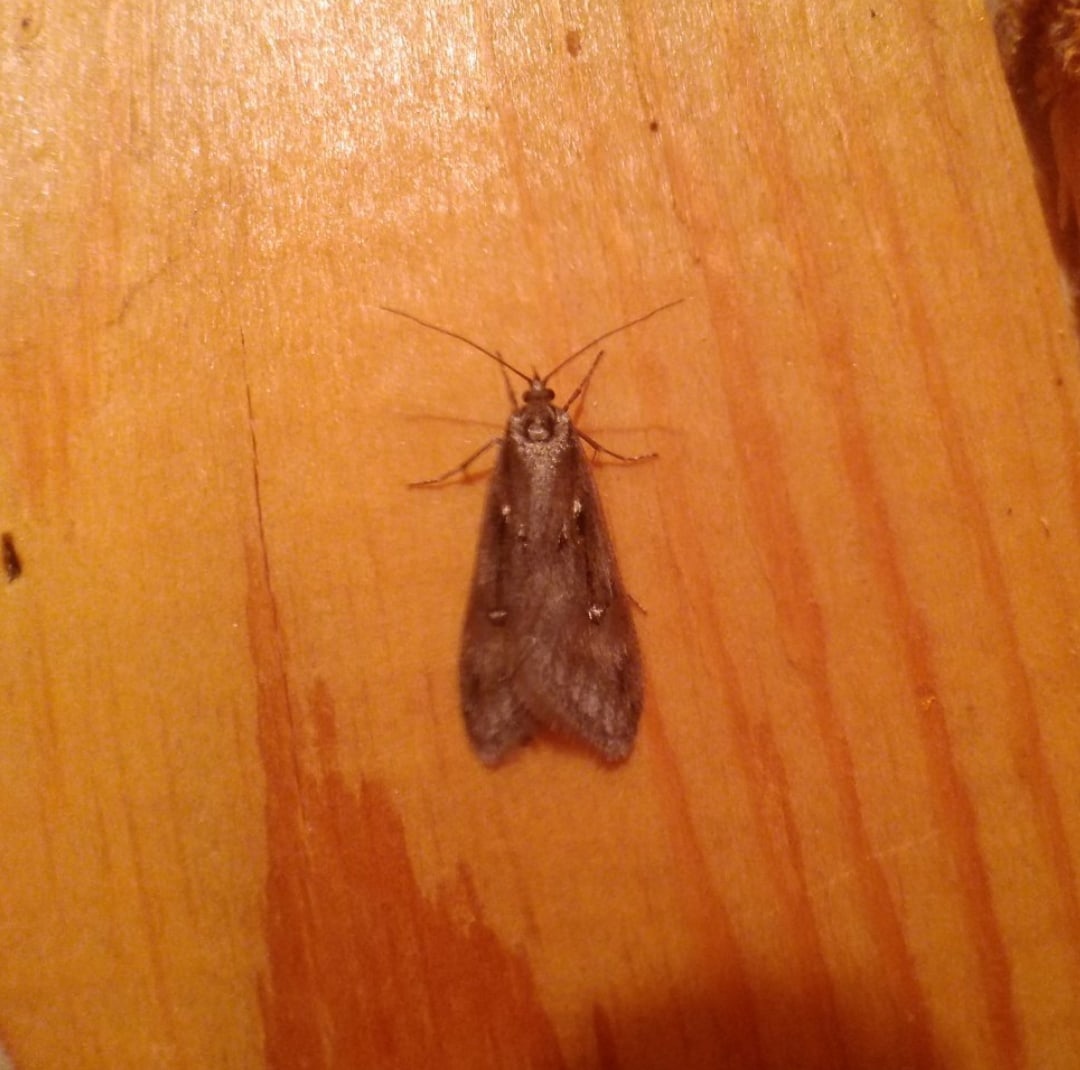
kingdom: Animalia
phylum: Arthropoda
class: Insecta
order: Lepidoptera
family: Depressariidae
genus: Semioscopis
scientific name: Semioscopis anella
